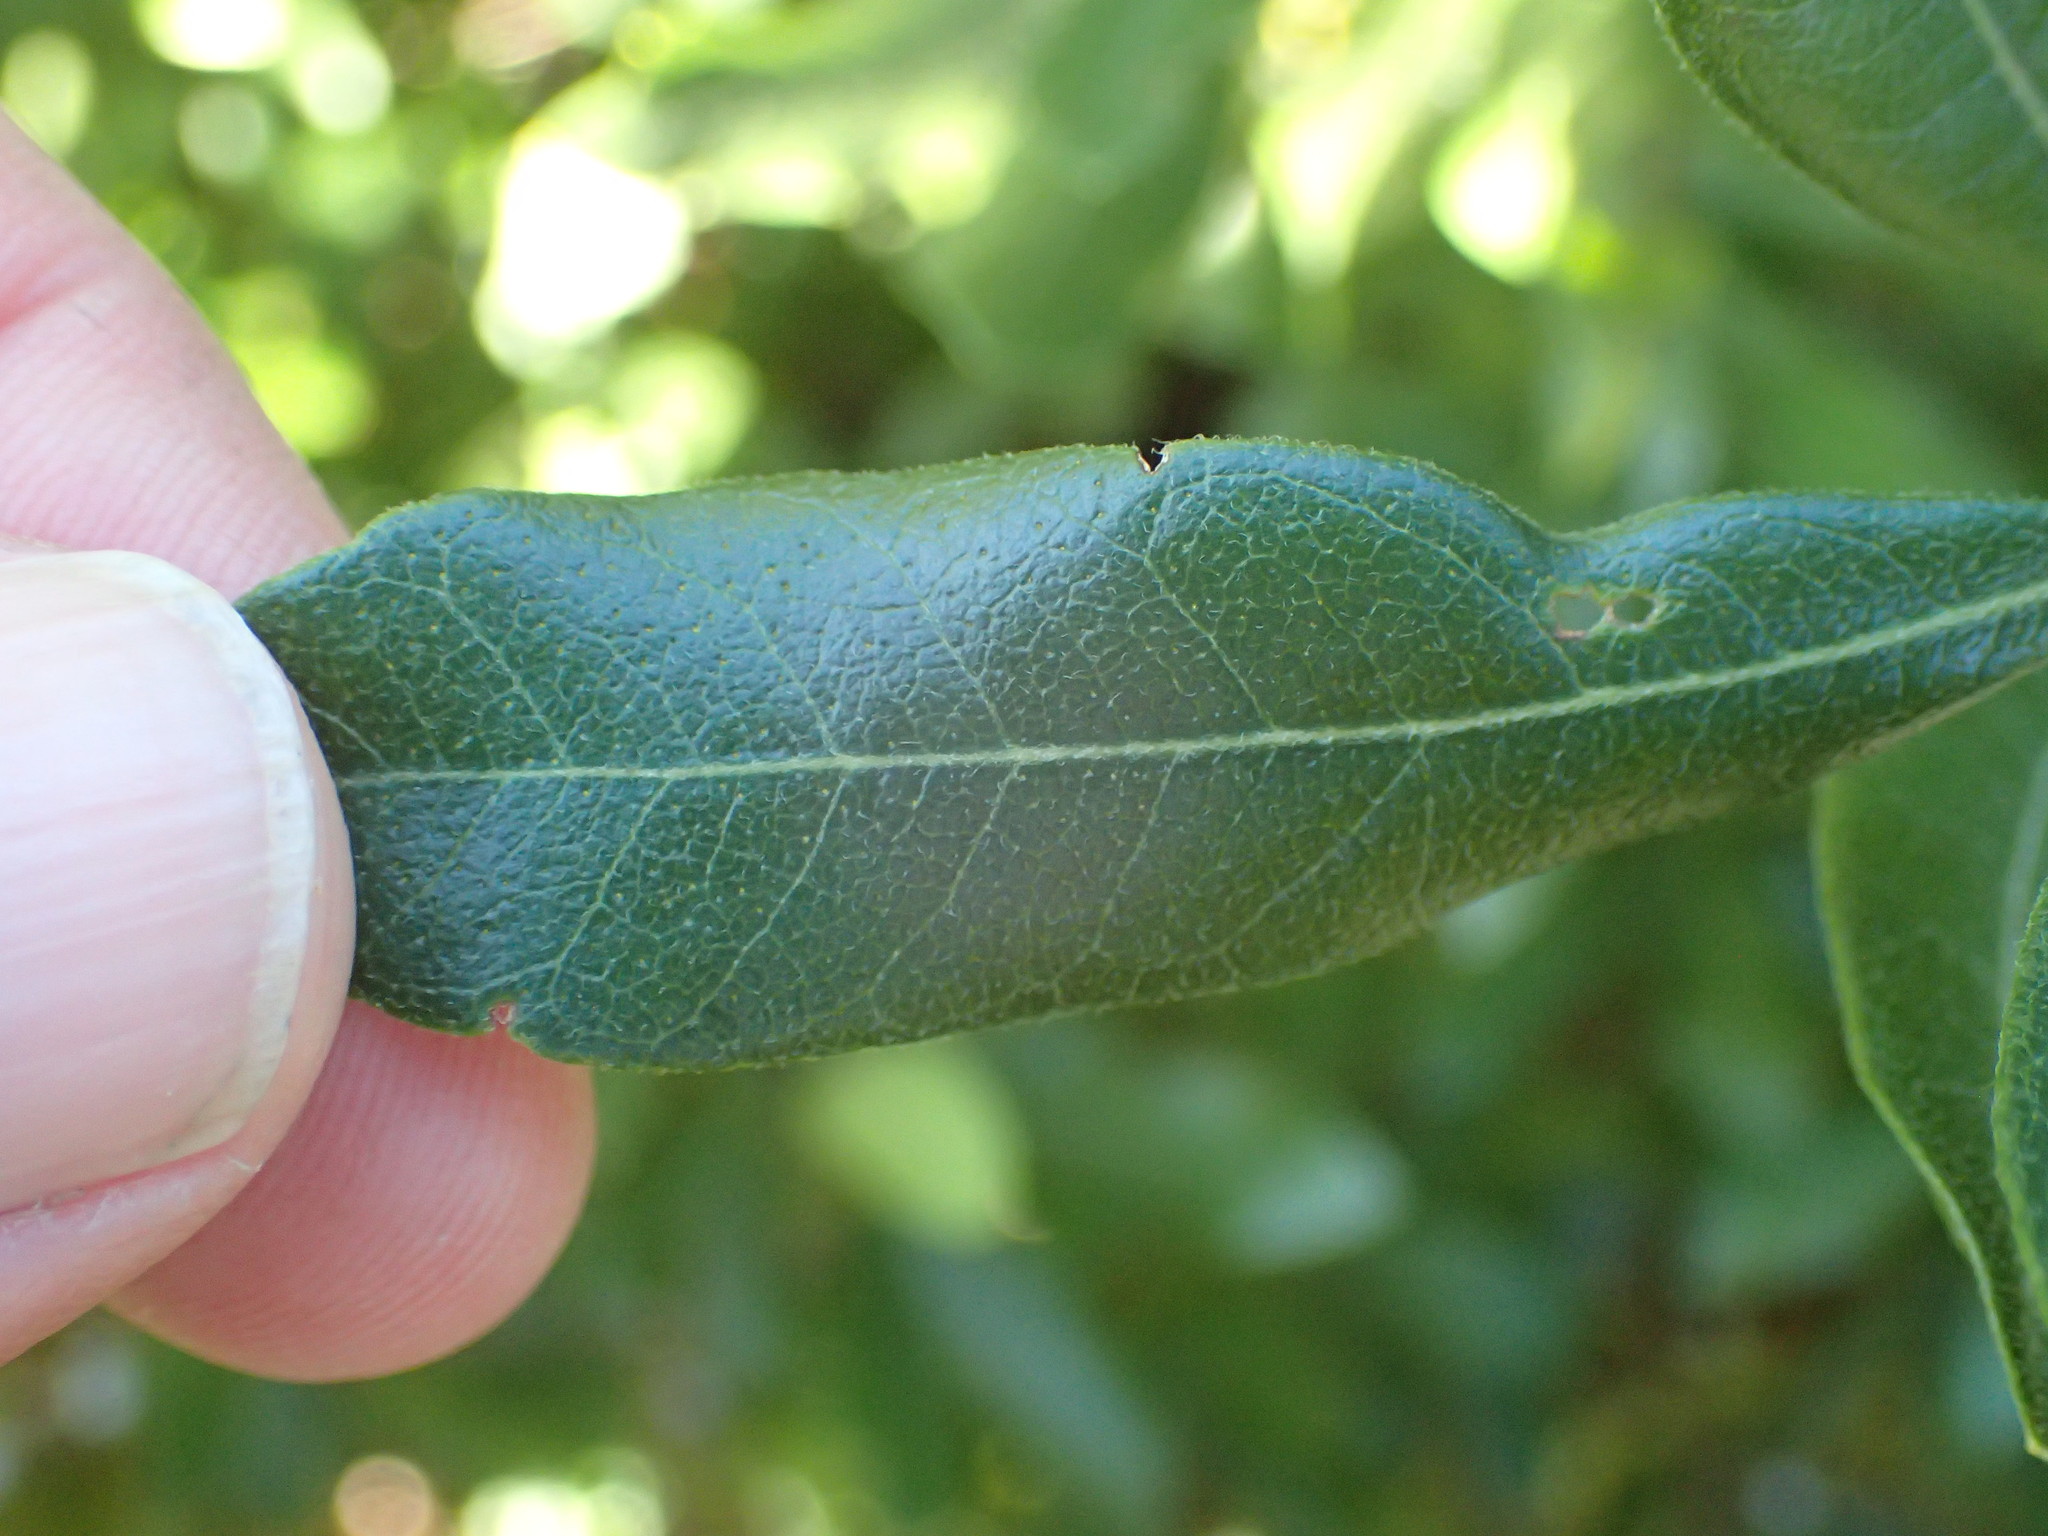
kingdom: Plantae
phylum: Tracheophyta
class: Magnoliopsida
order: Fagales
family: Myricaceae
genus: Morella
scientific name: Morella pensylvanica
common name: Northern bayberry
